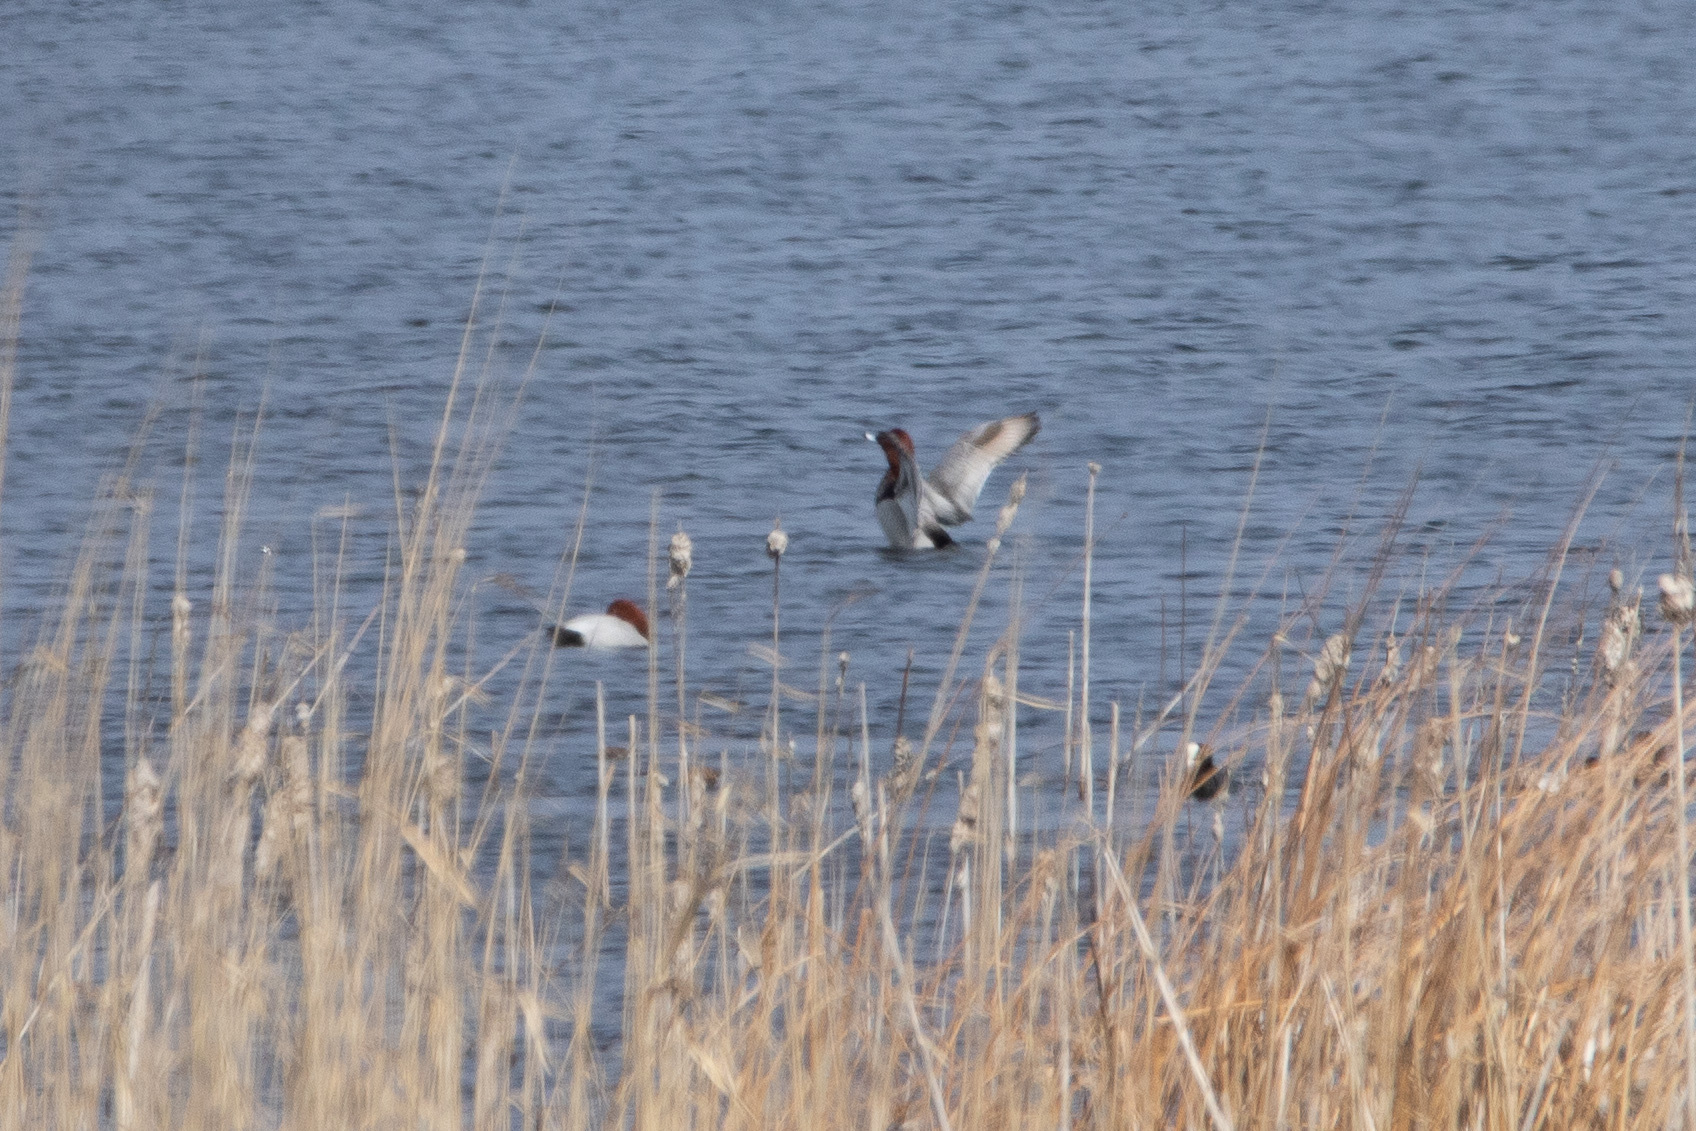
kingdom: Animalia
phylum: Chordata
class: Aves
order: Anseriformes
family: Anatidae
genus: Aythya
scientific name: Aythya ferina
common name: Common pochard
